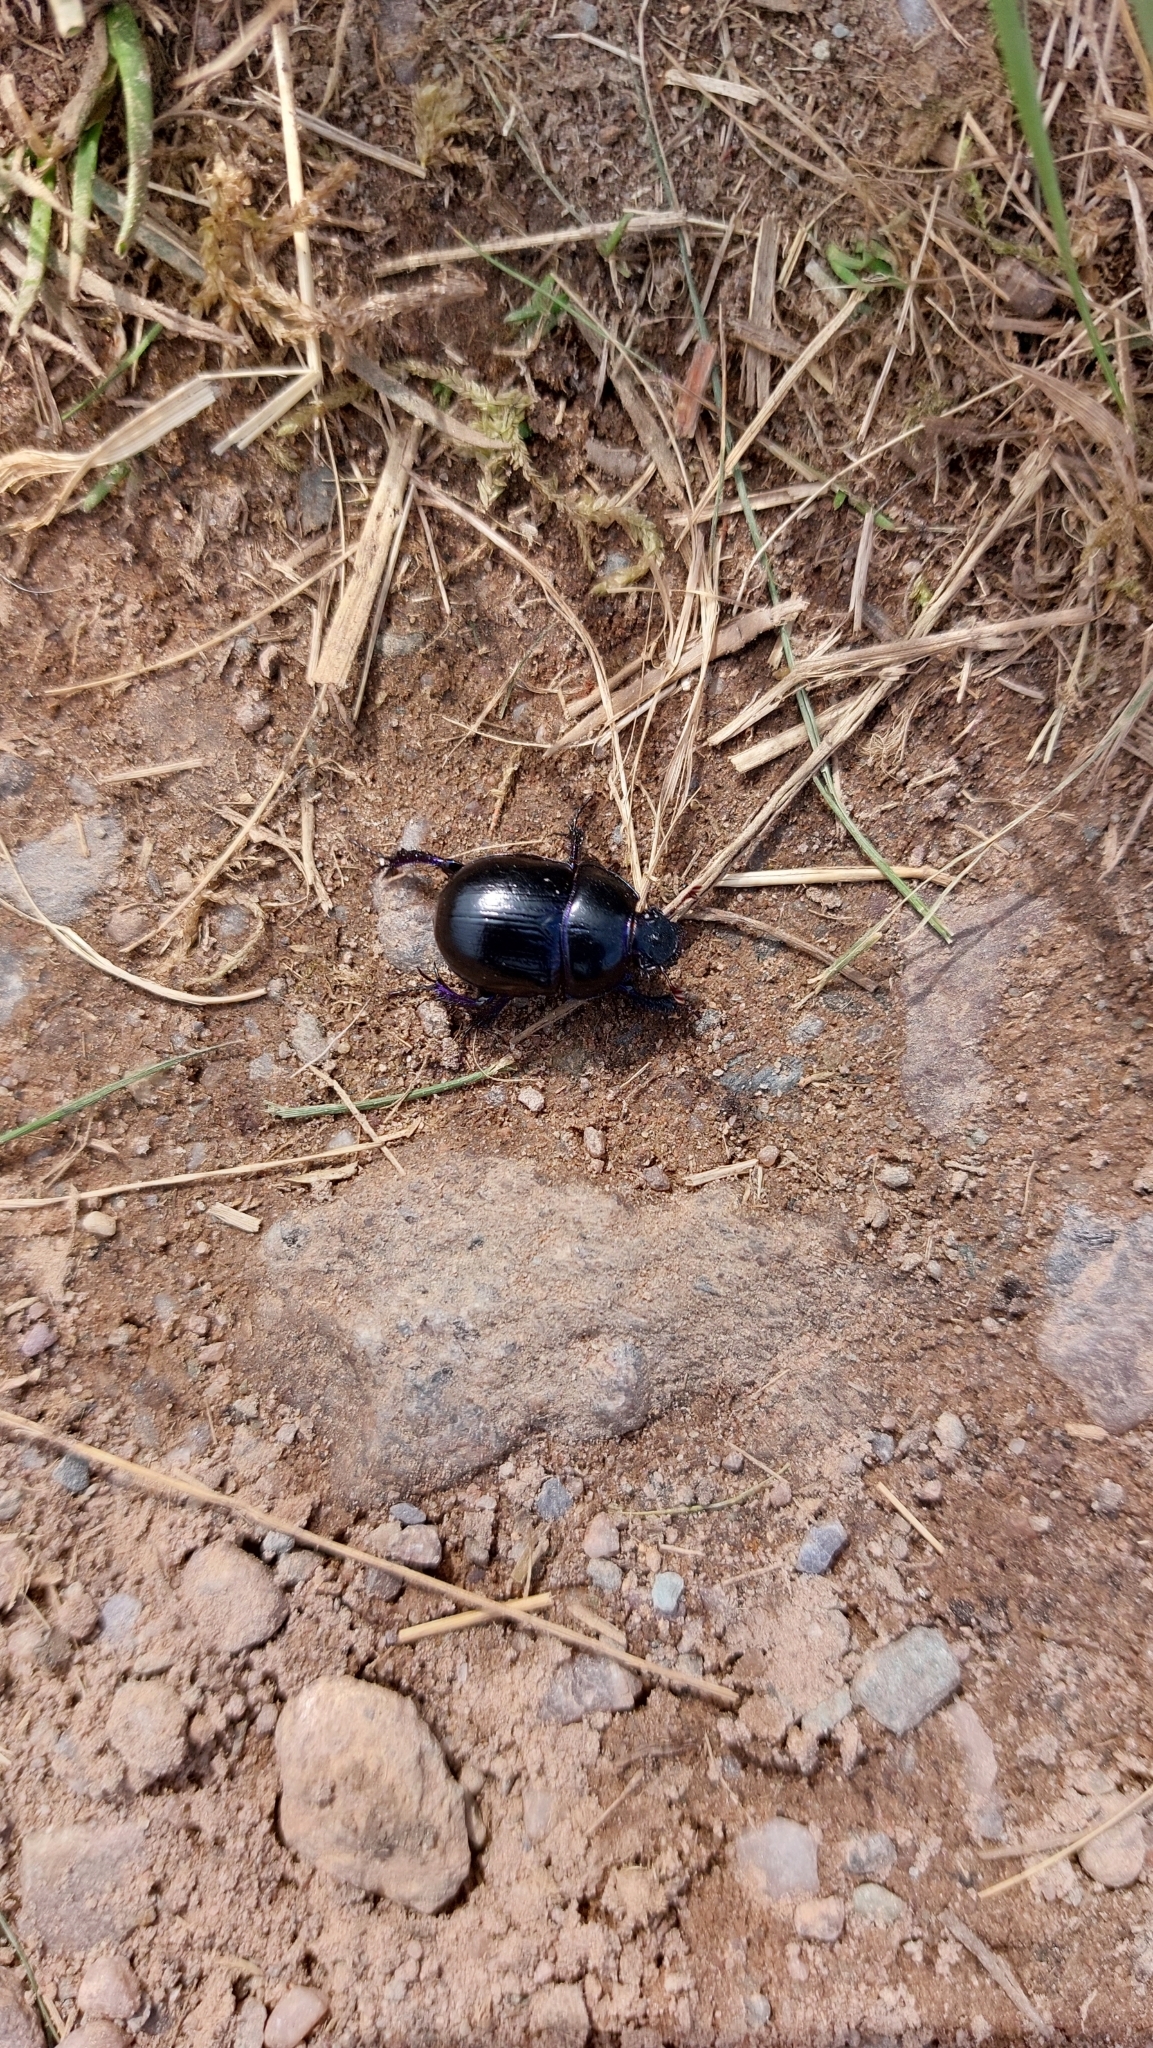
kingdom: Animalia
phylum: Arthropoda
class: Insecta
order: Coleoptera
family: Geotrupidae
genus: Anoplotrupes
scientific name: Anoplotrupes stercorosus
